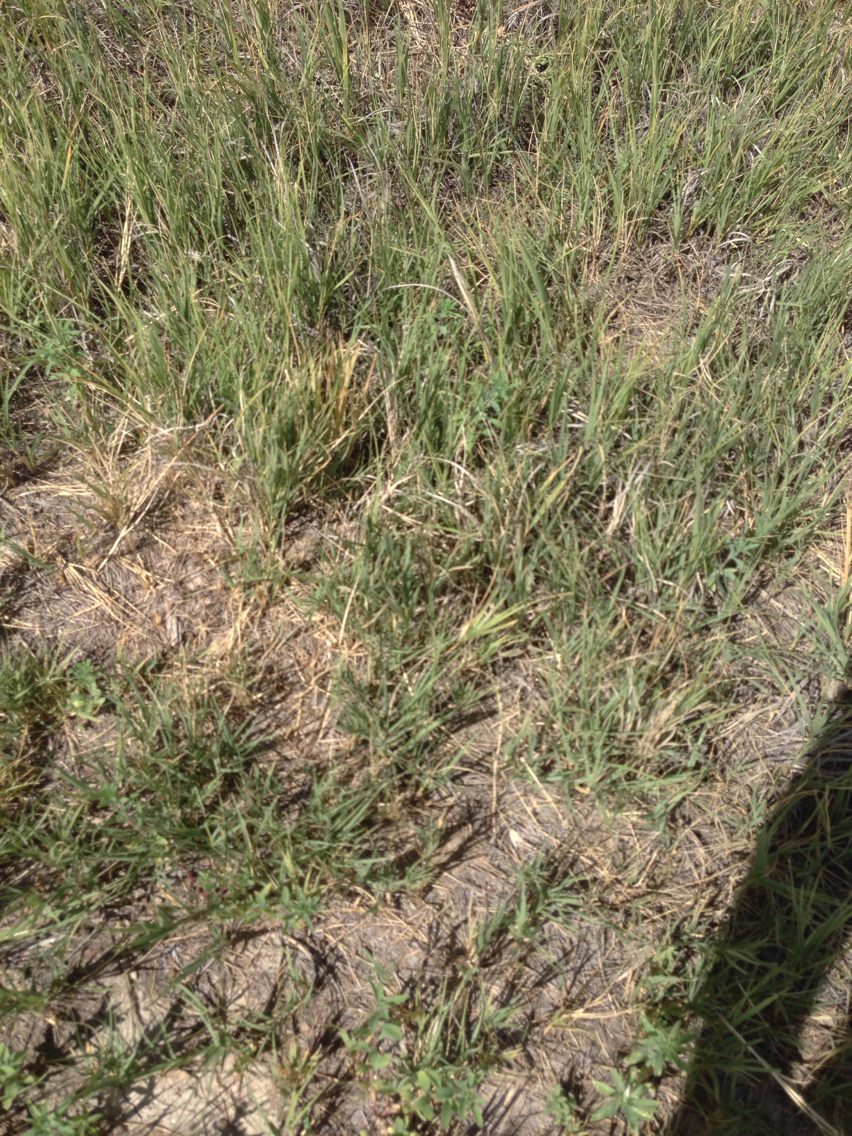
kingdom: Plantae
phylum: Tracheophyta
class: Liliopsida
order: Poales
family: Poaceae
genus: Distichlis
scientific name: Distichlis spicata
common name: Saltgrass
